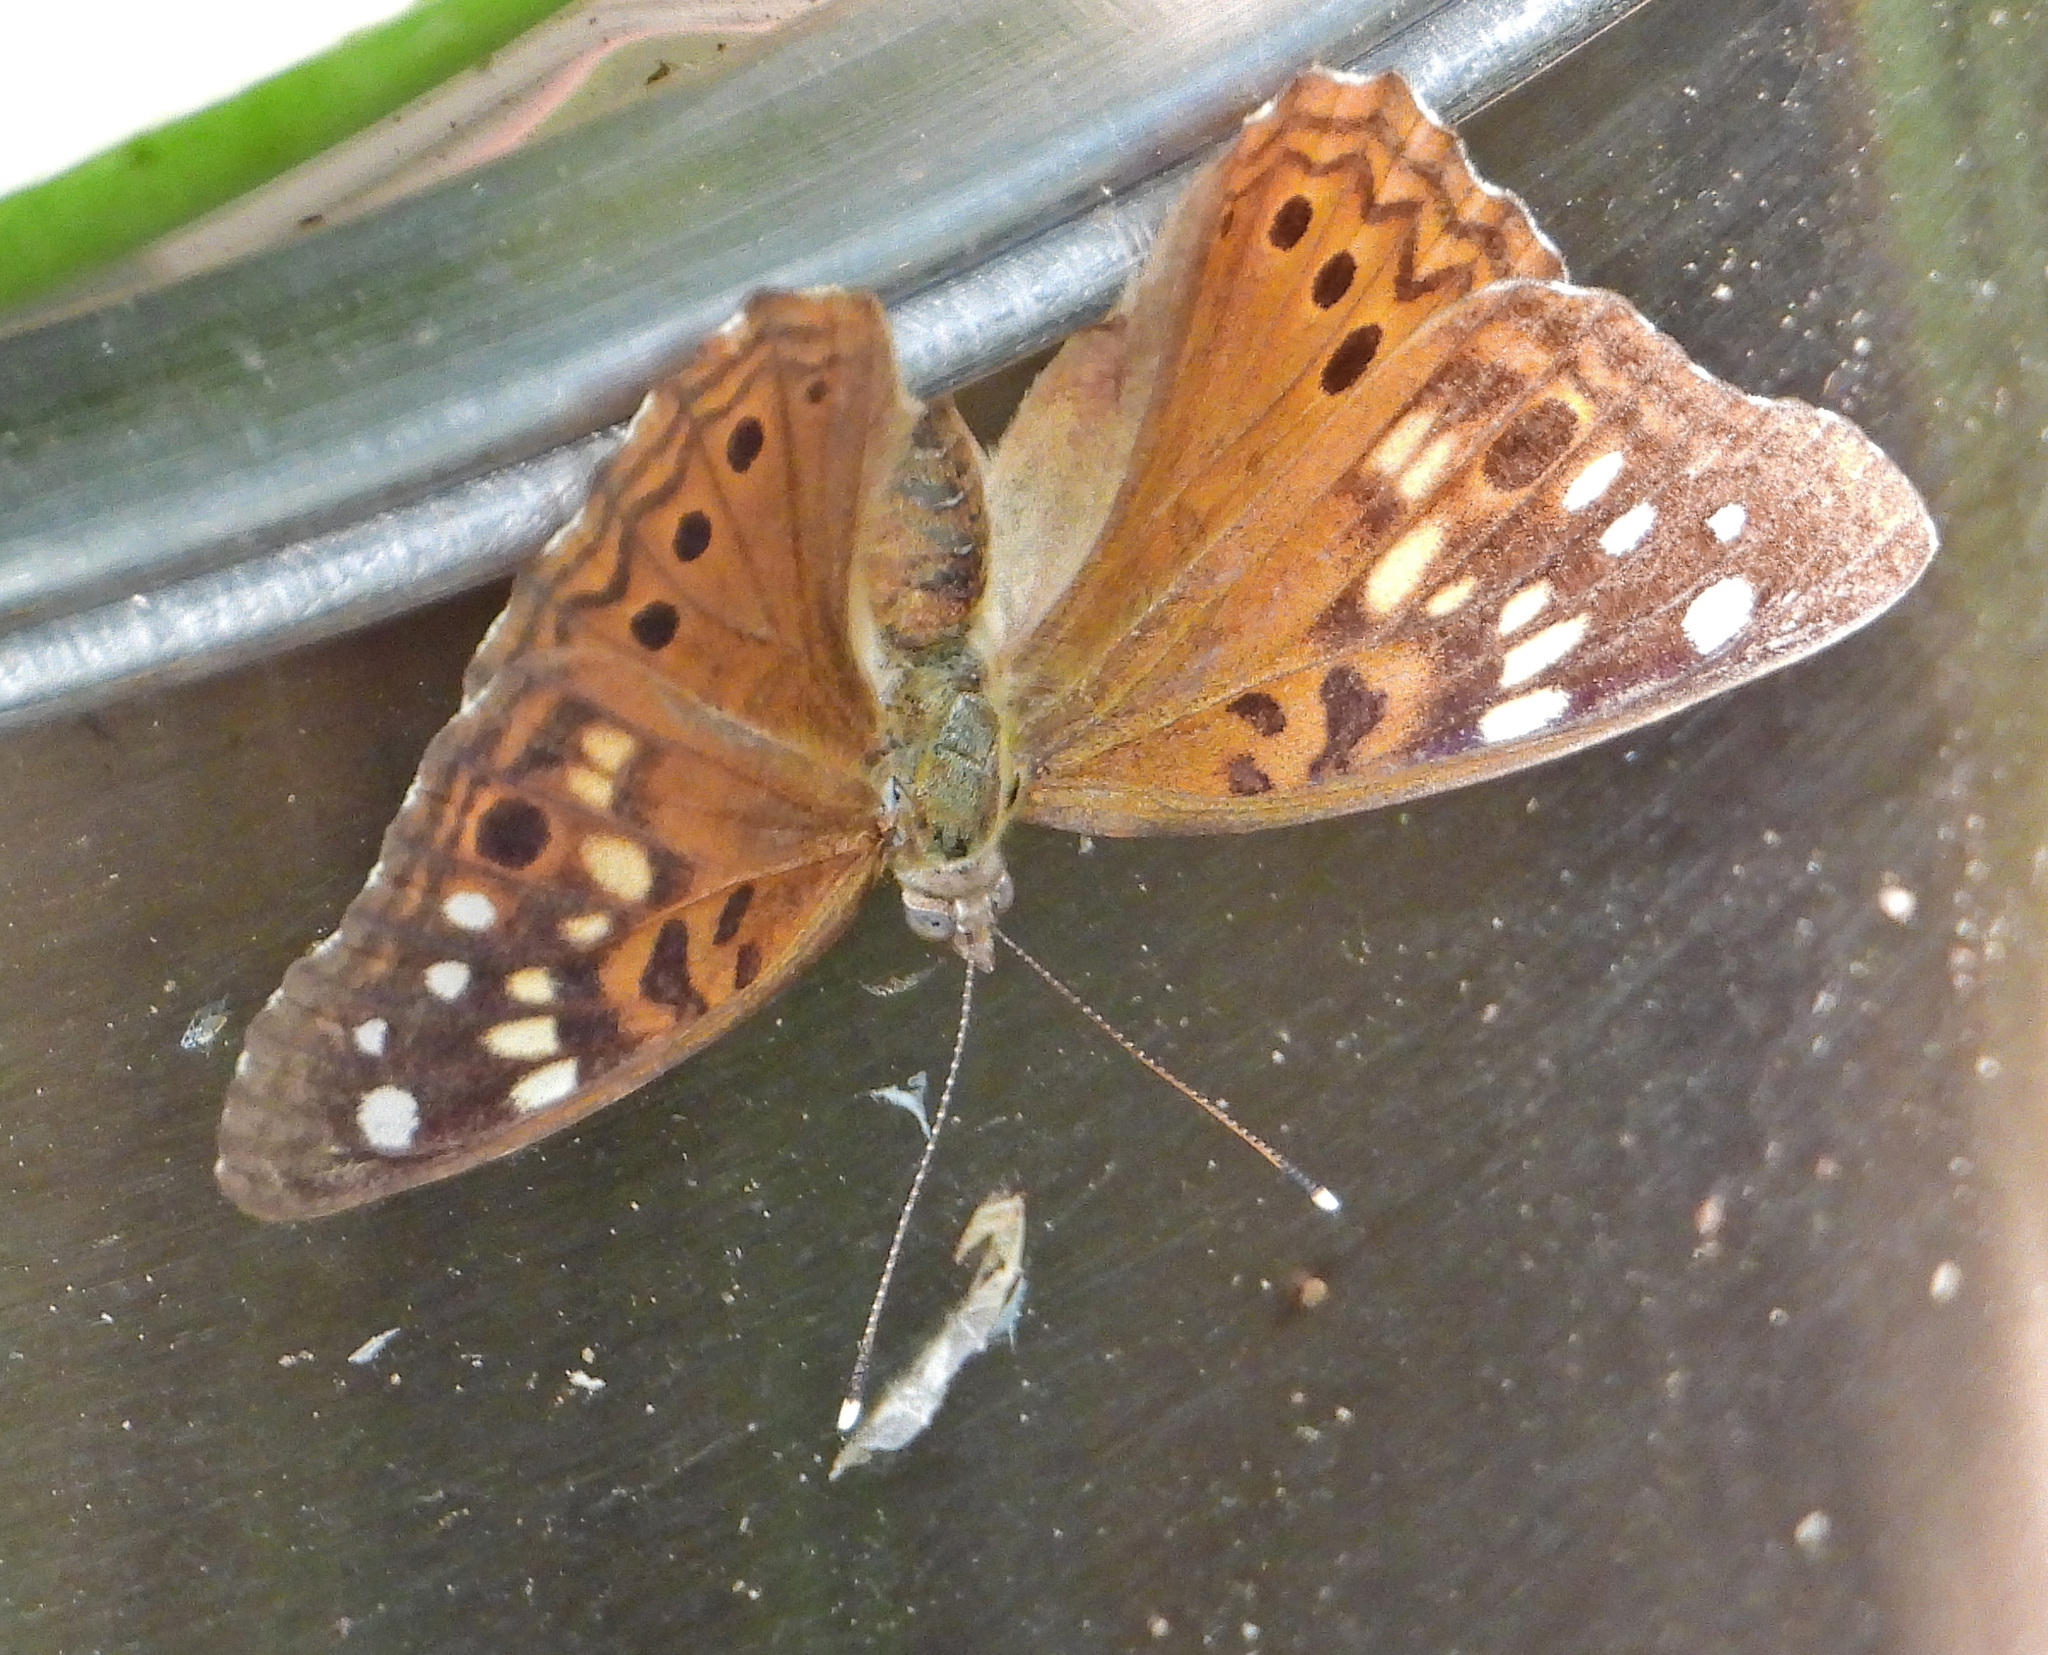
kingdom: Animalia
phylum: Arthropoda
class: Insecta
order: Lepidoptera
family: Nymphalidae
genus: Asterocampa
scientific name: Asterocampa celtis
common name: Hackberry emperor
